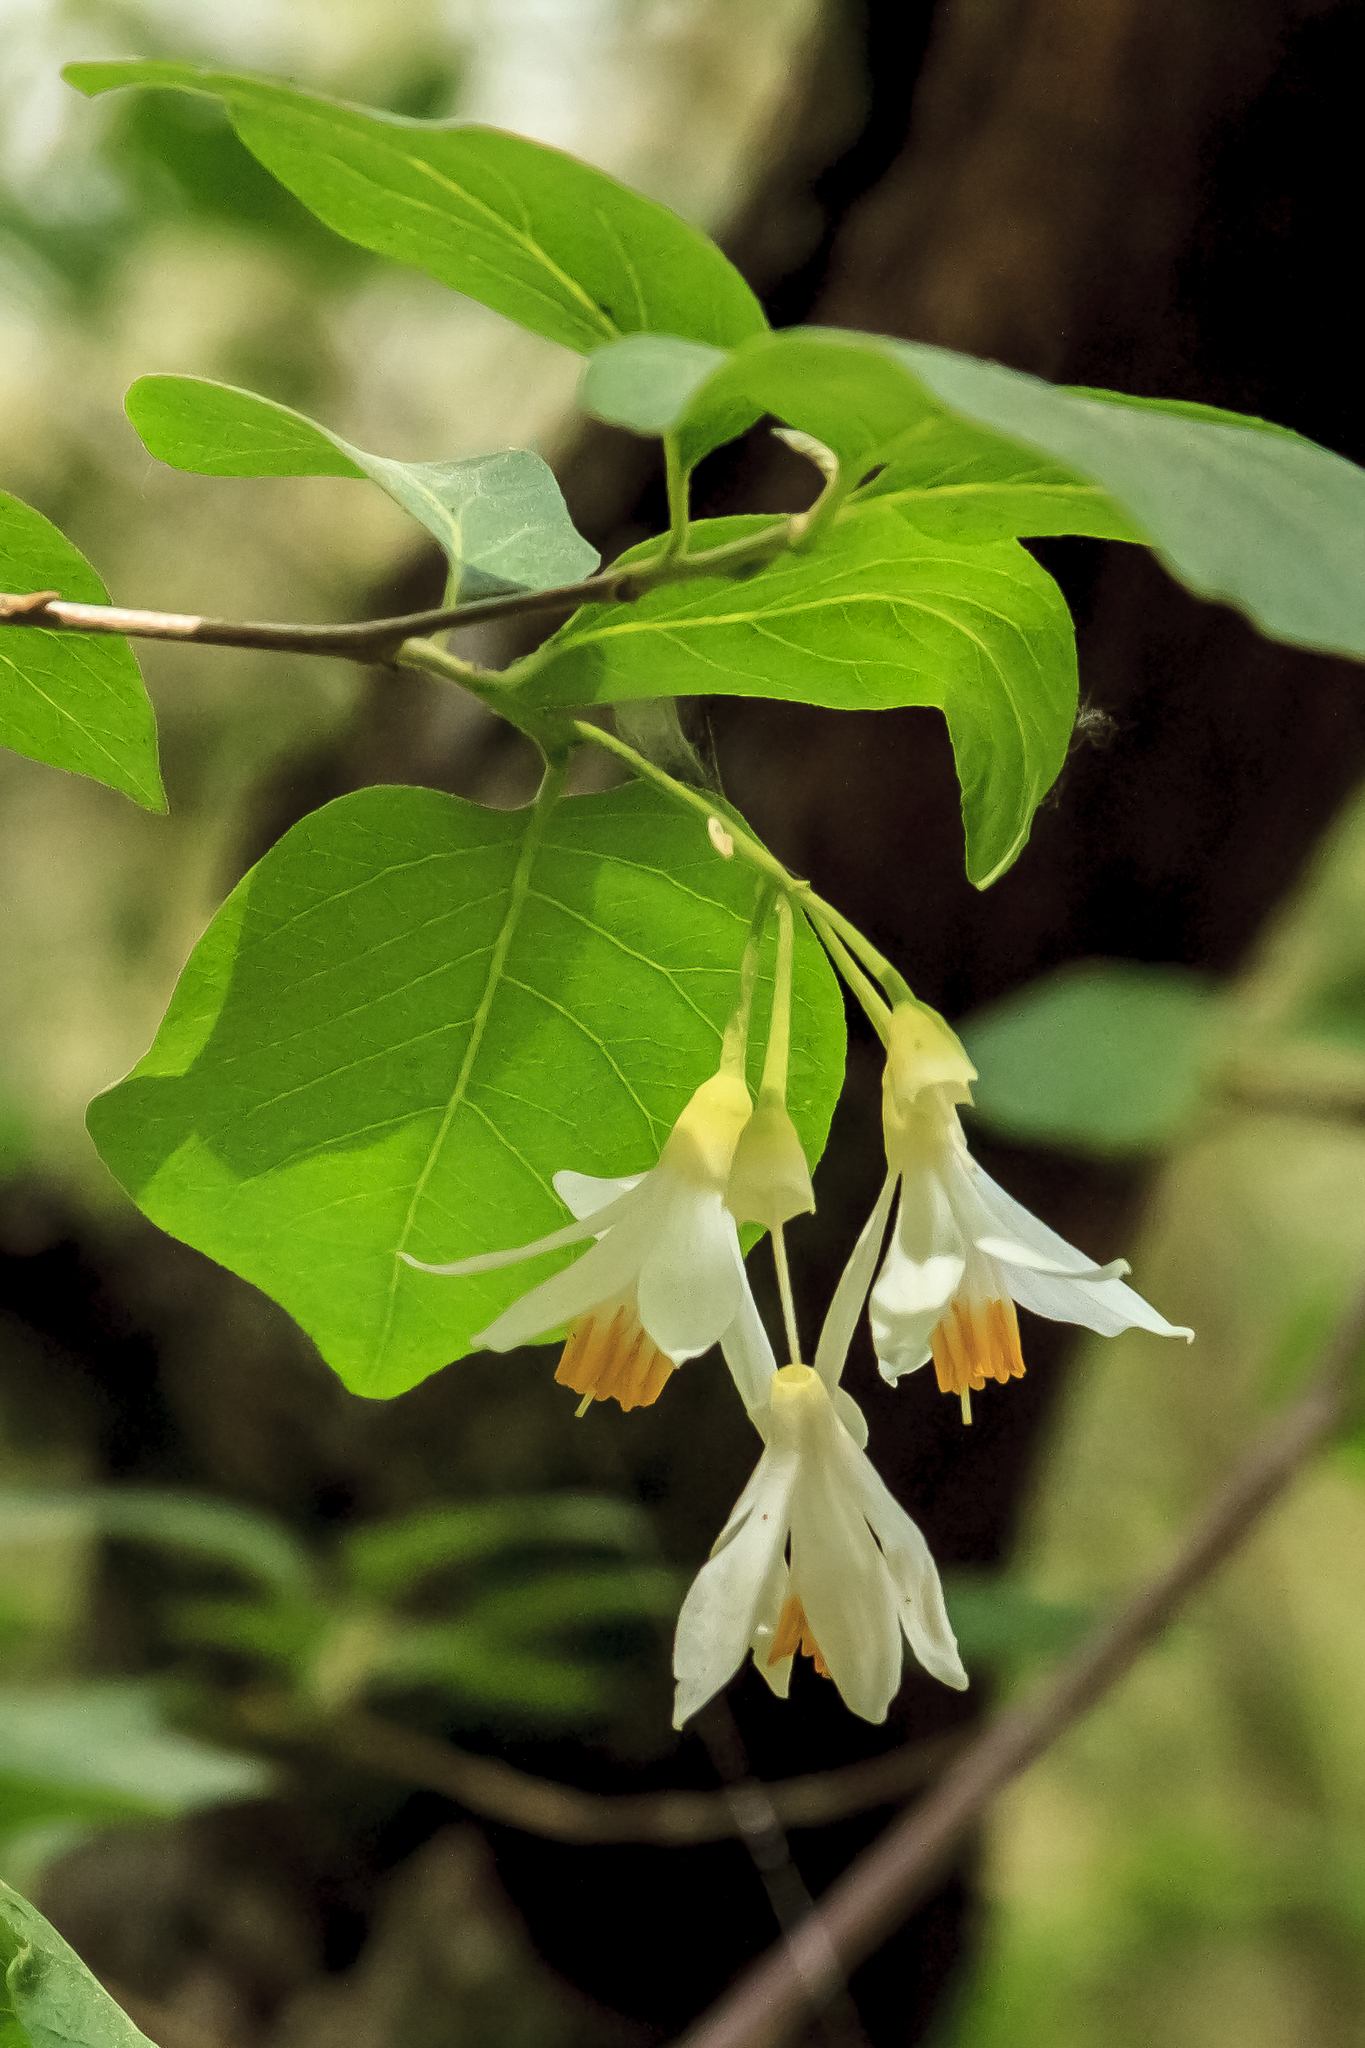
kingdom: Plantae
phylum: Tracheophyta
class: Magnoliopsida
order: Ericales
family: Styracaceae
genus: Styrax
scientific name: Styrax redivivus
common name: California styrax
